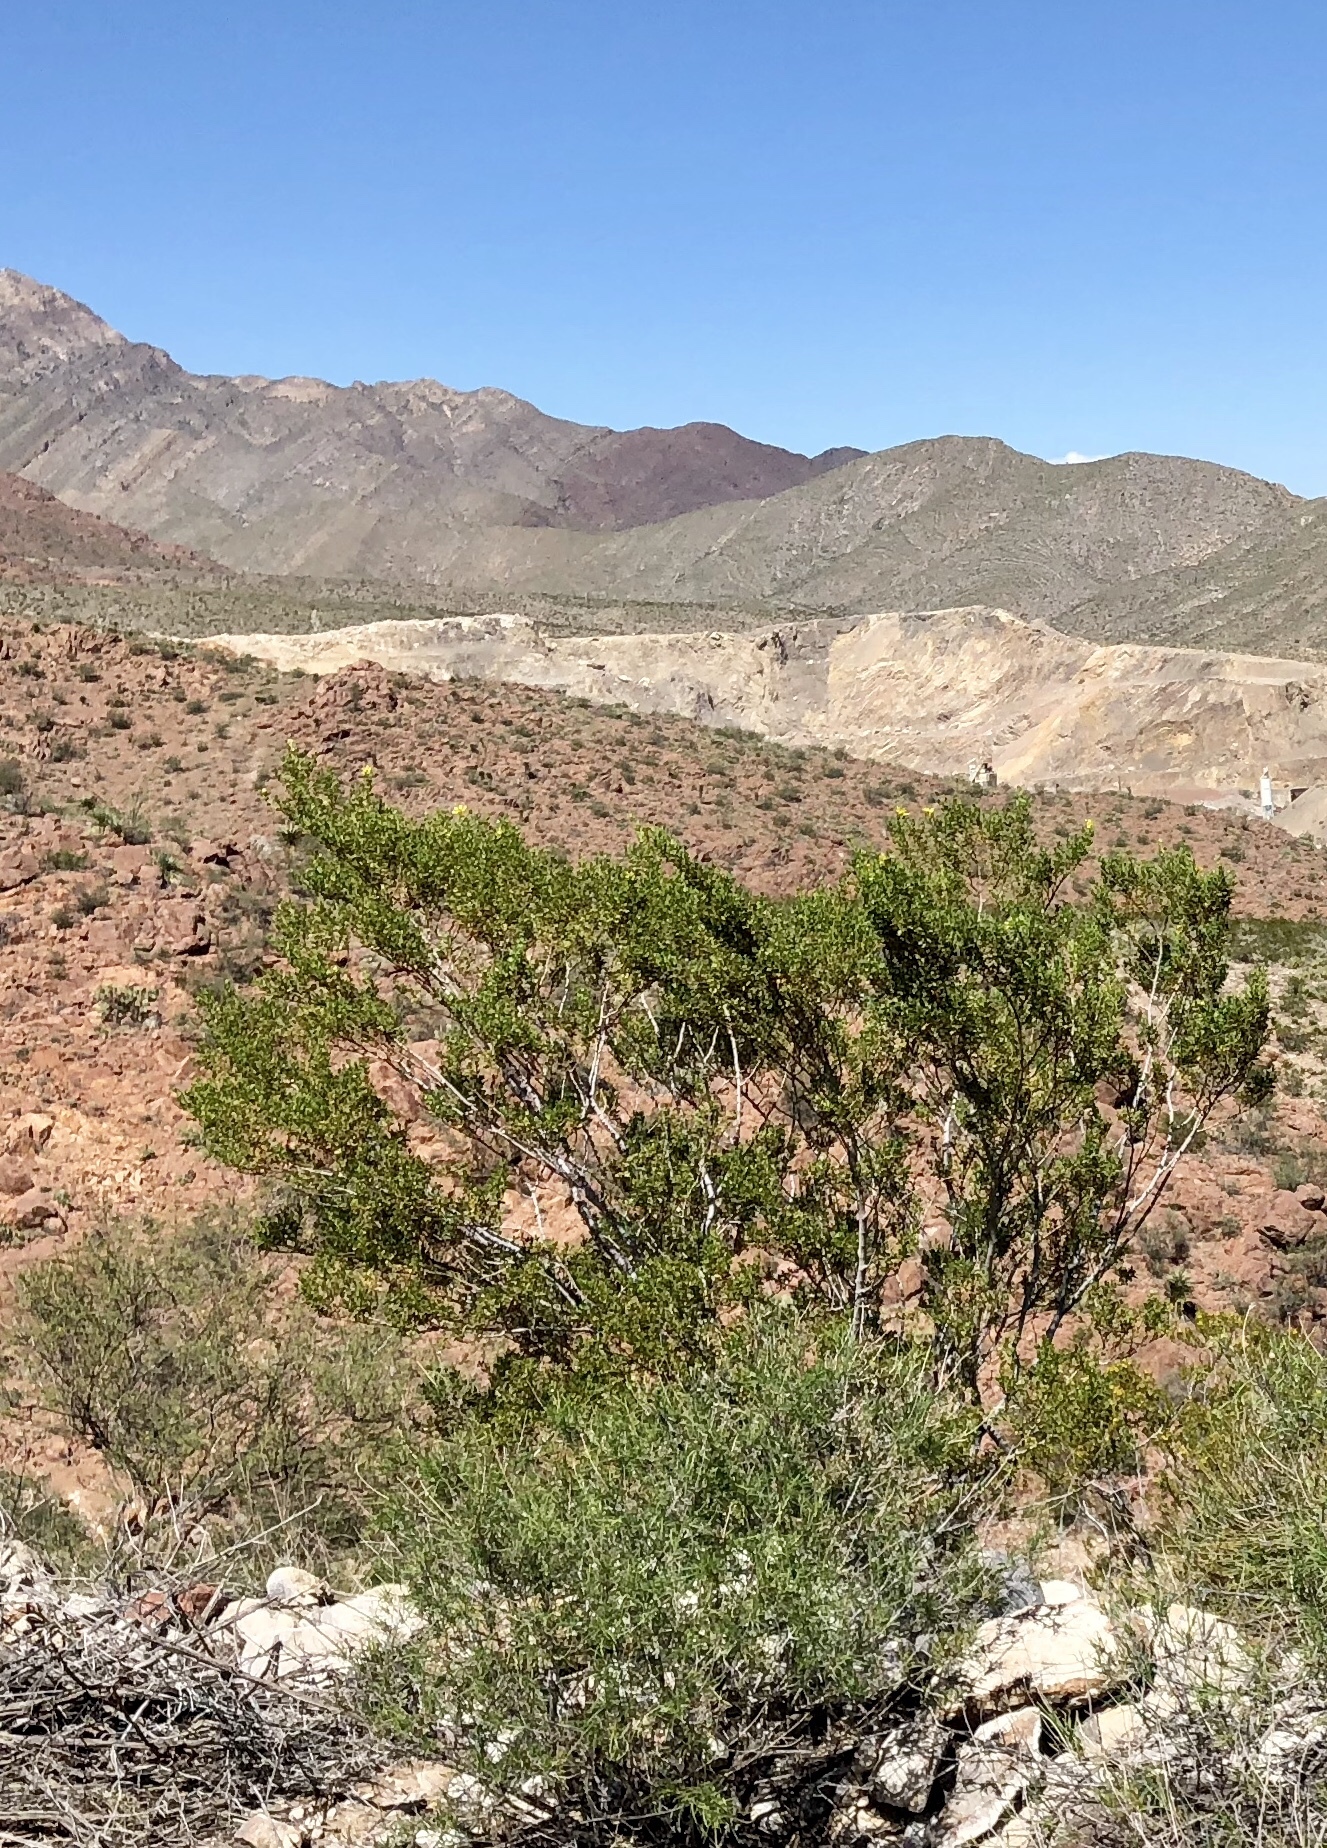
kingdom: Plantae
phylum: Tracheophyta
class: Magnoliopsida
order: Zygophyllales
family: Zygophyllaceae
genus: Larrea
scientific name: Larrea tridentata
